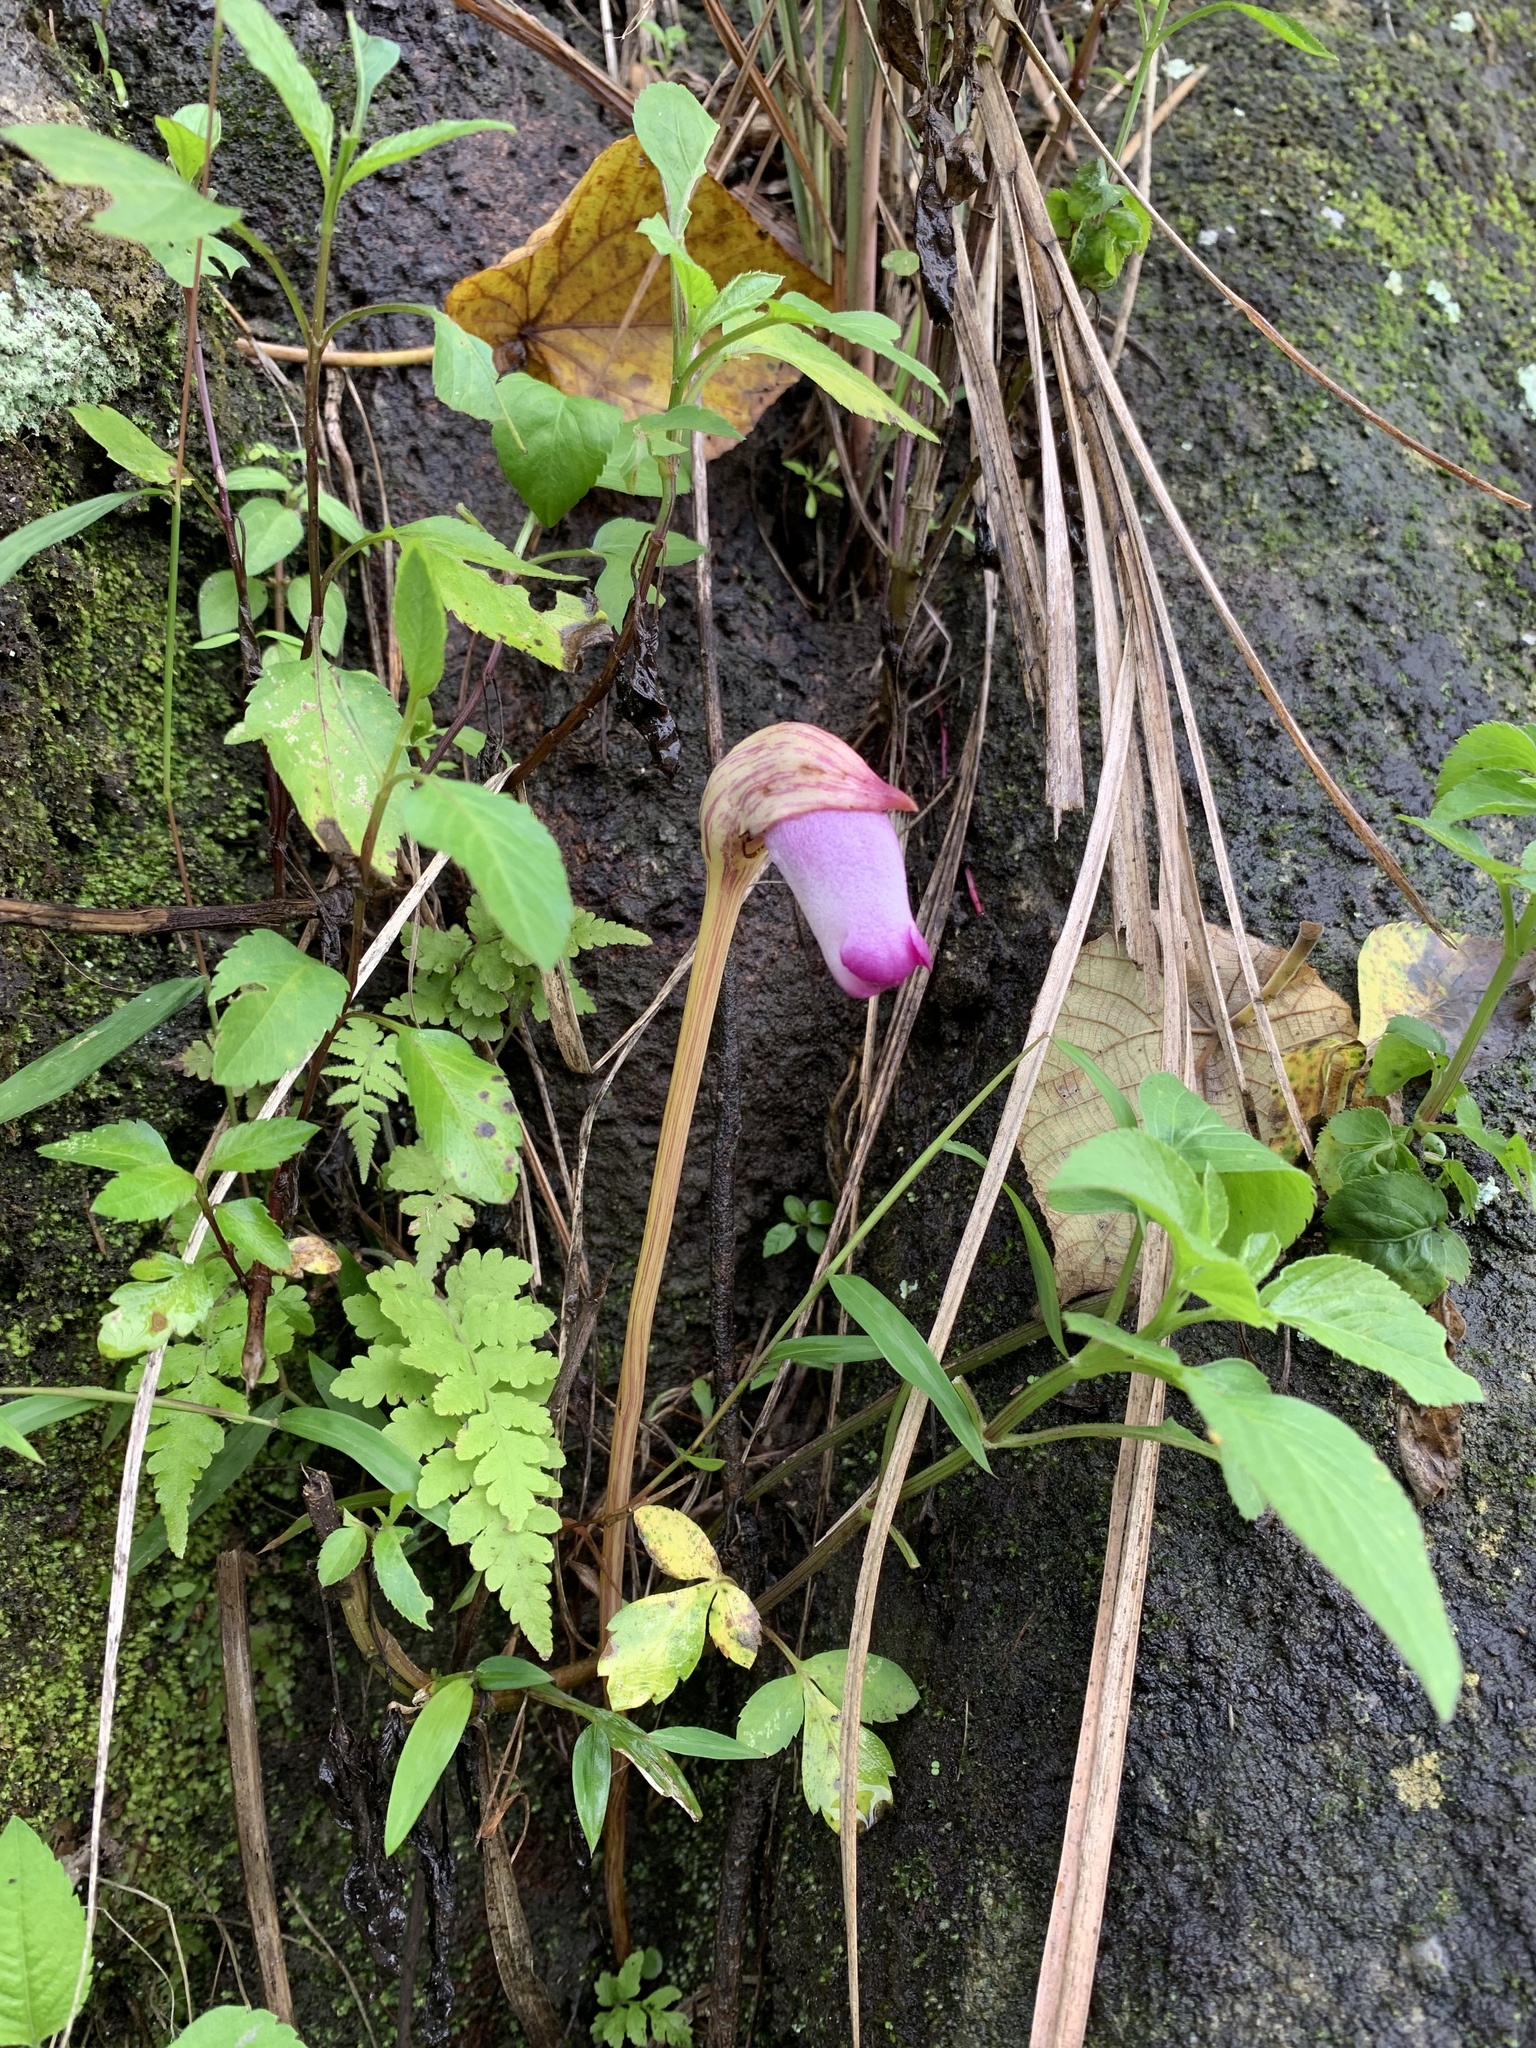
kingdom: Plantae
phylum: Tracheophyta
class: Magnoliopsida
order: Lamiales
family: Orobanchaceae
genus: Aeginetia
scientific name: Aeginetia indica
